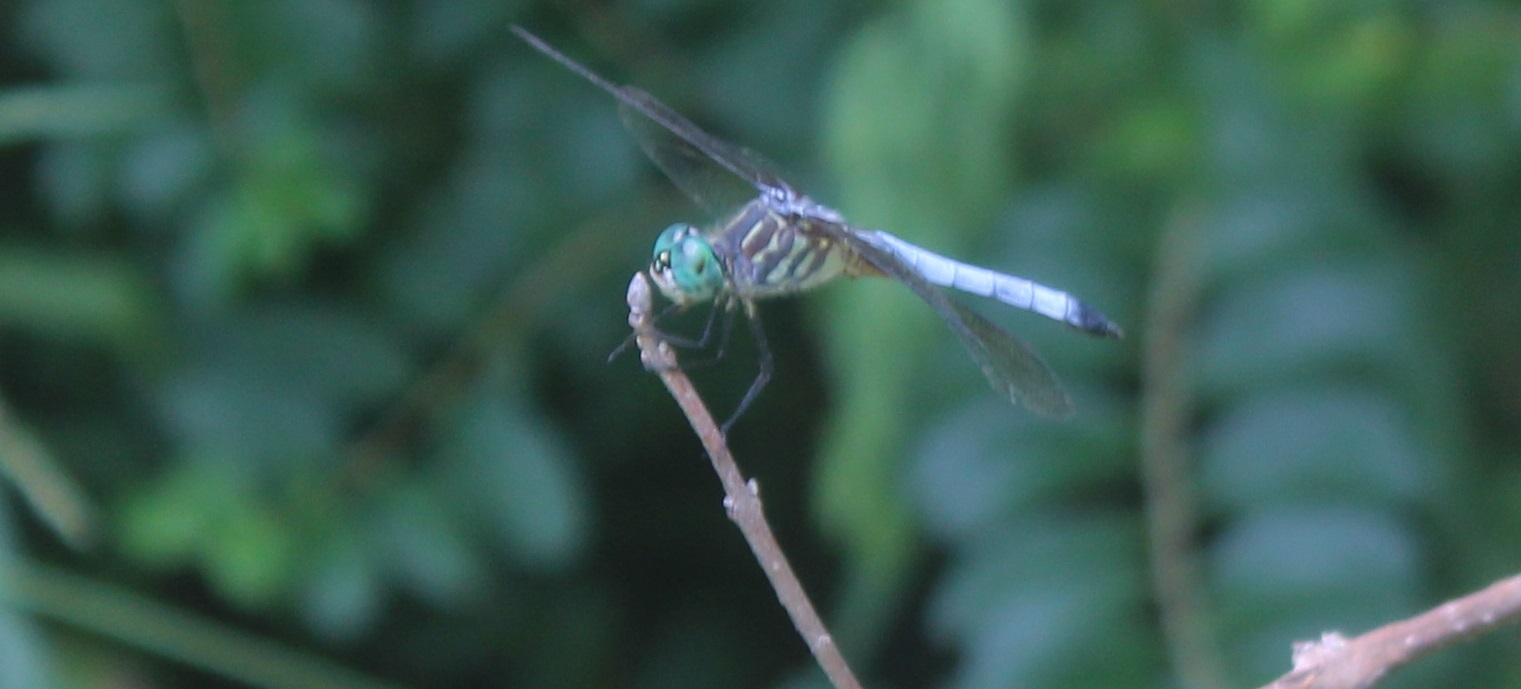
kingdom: Animalia
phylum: Arthropoda
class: Insecta
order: Odonata
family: Libellulidae
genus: Pachydiplax
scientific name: Pachydiplax longipennis
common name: Blue dasher
